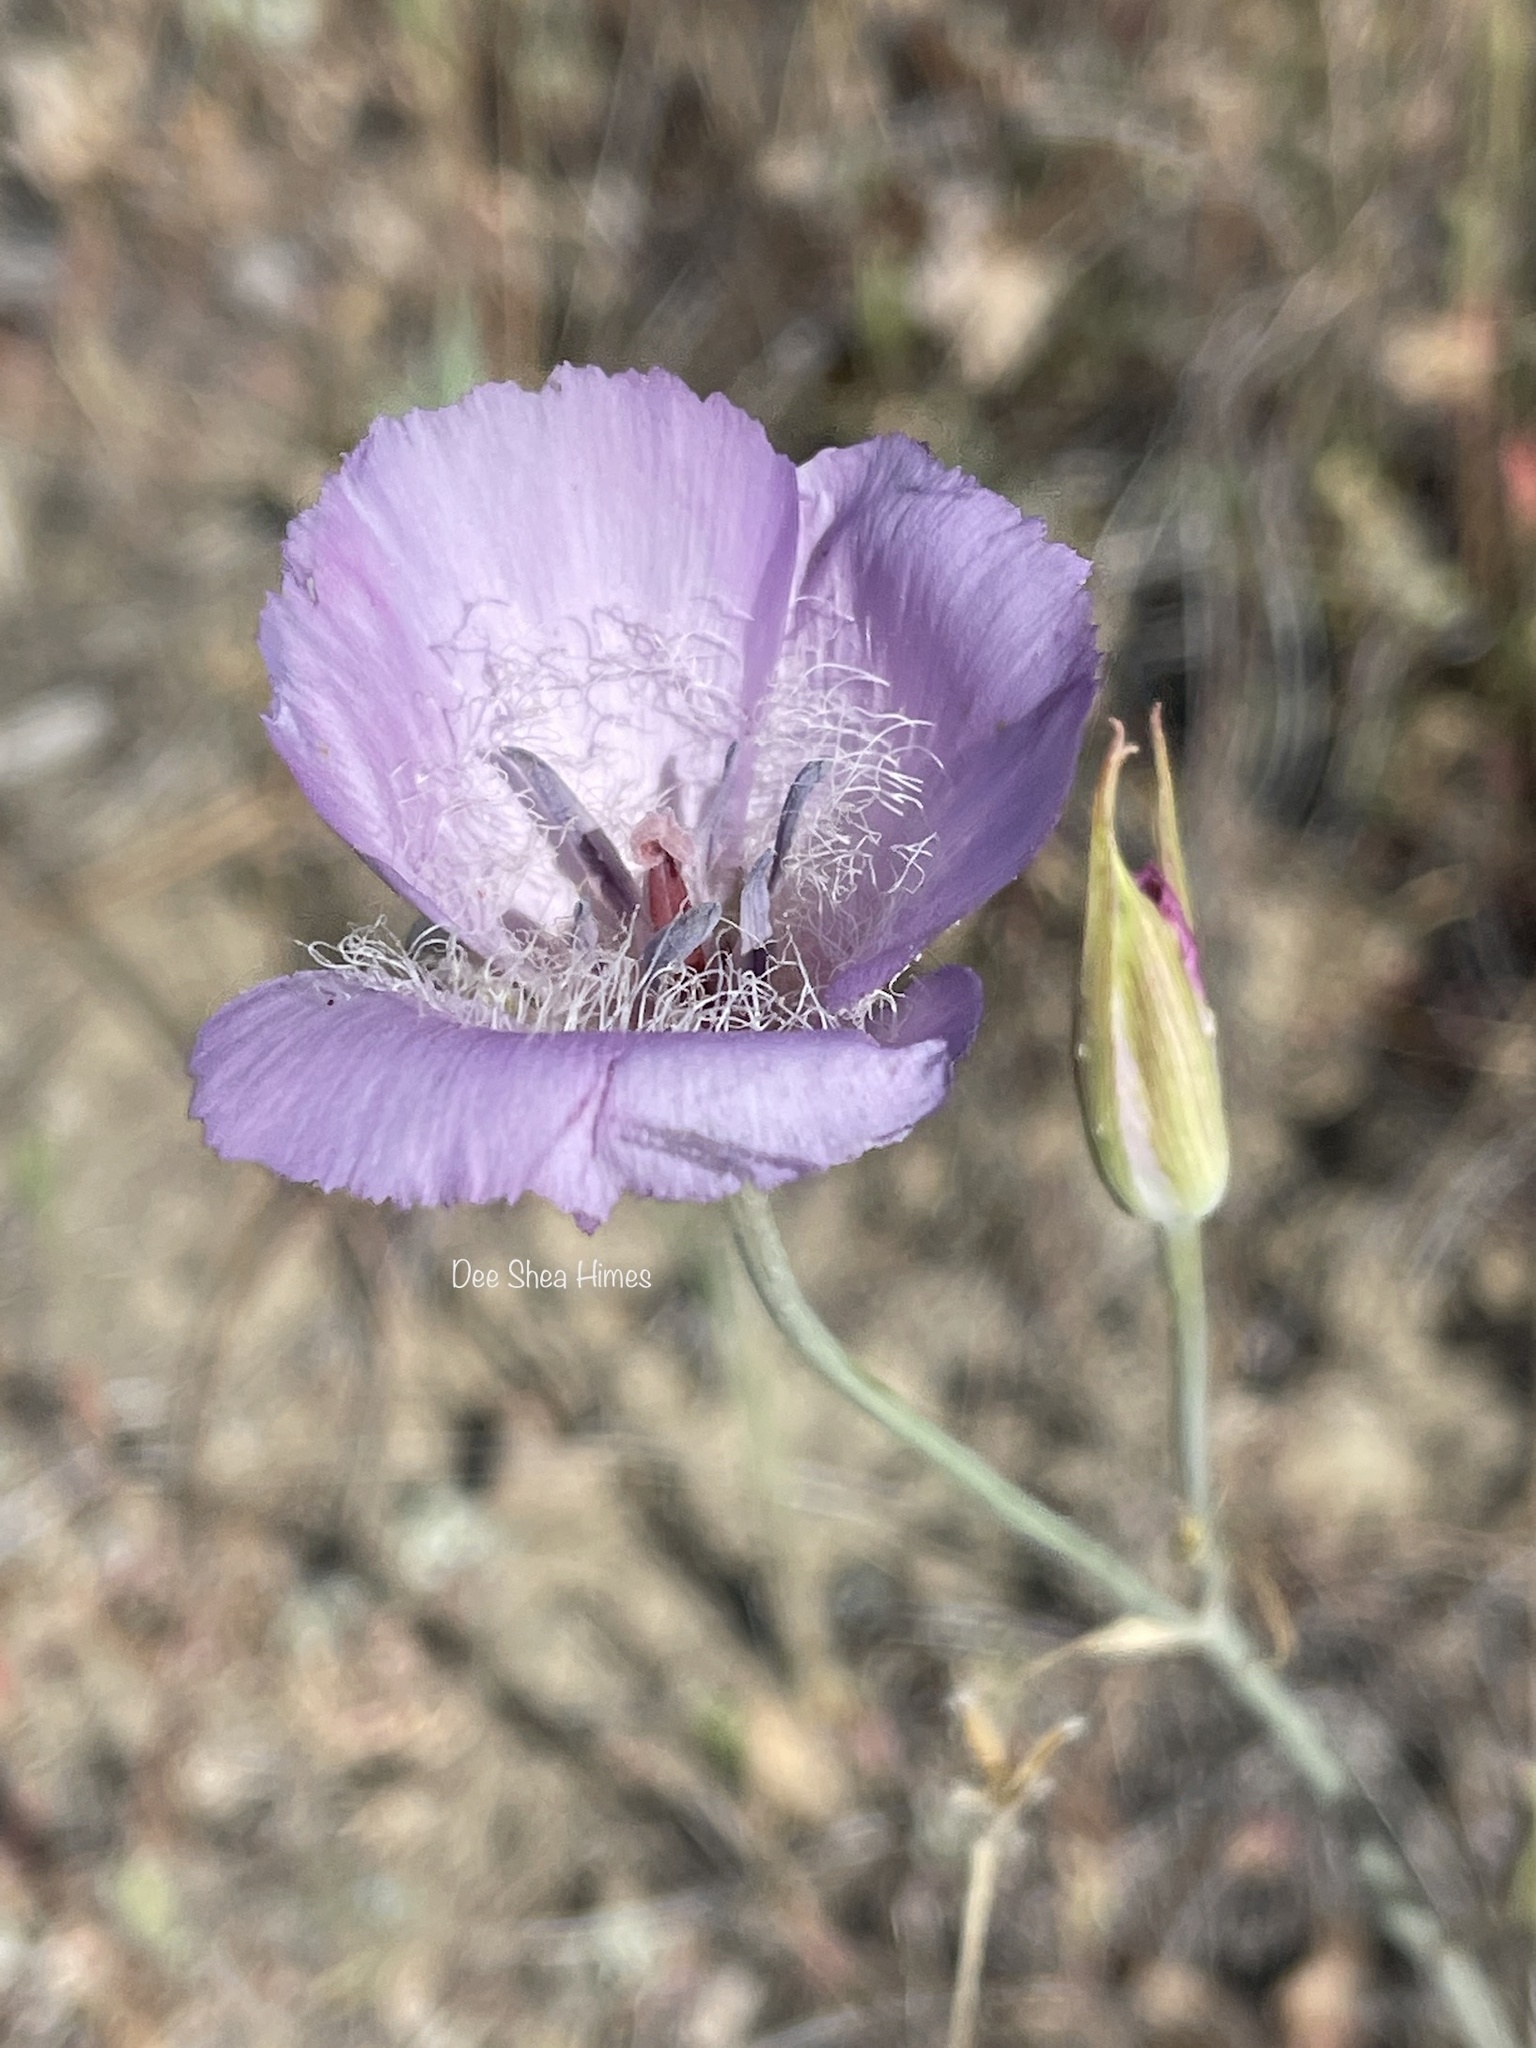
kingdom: Plantae
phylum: Tracheophyta
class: Liliopsida
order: Liliales
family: Liliaceae
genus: Calochortus
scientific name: Calochortus splendens
